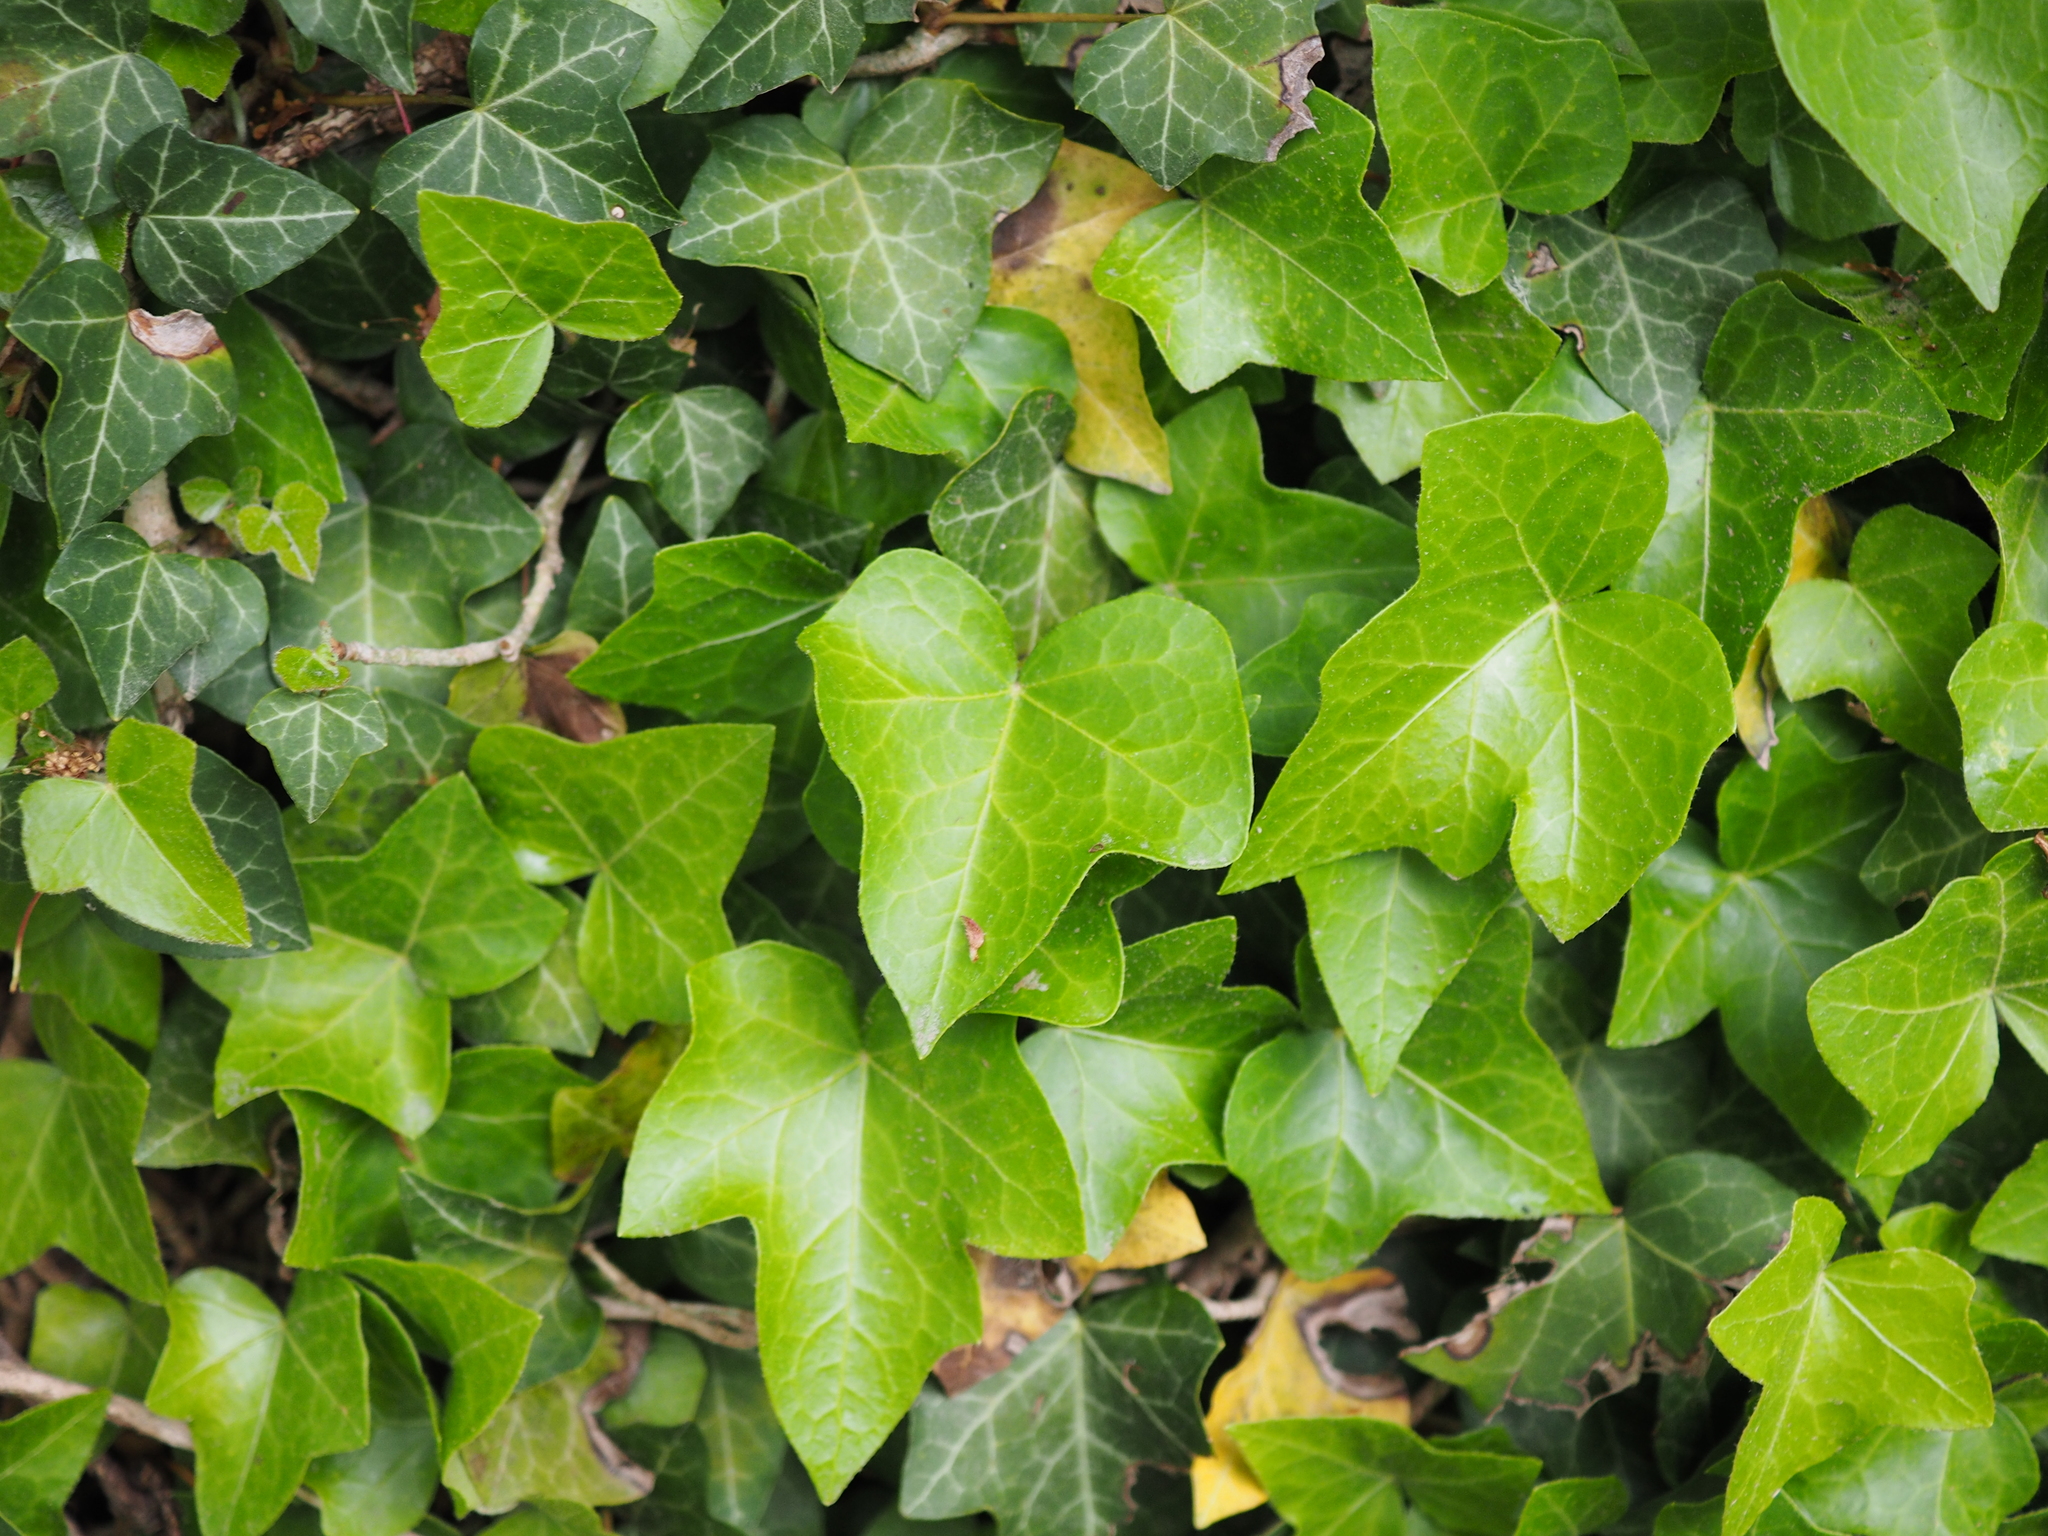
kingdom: Plantae
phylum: Tracheophyta
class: Magnoliopsida
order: Apiales
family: Araliaceae
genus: Hedera
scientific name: Hedera helix
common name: Ivy
